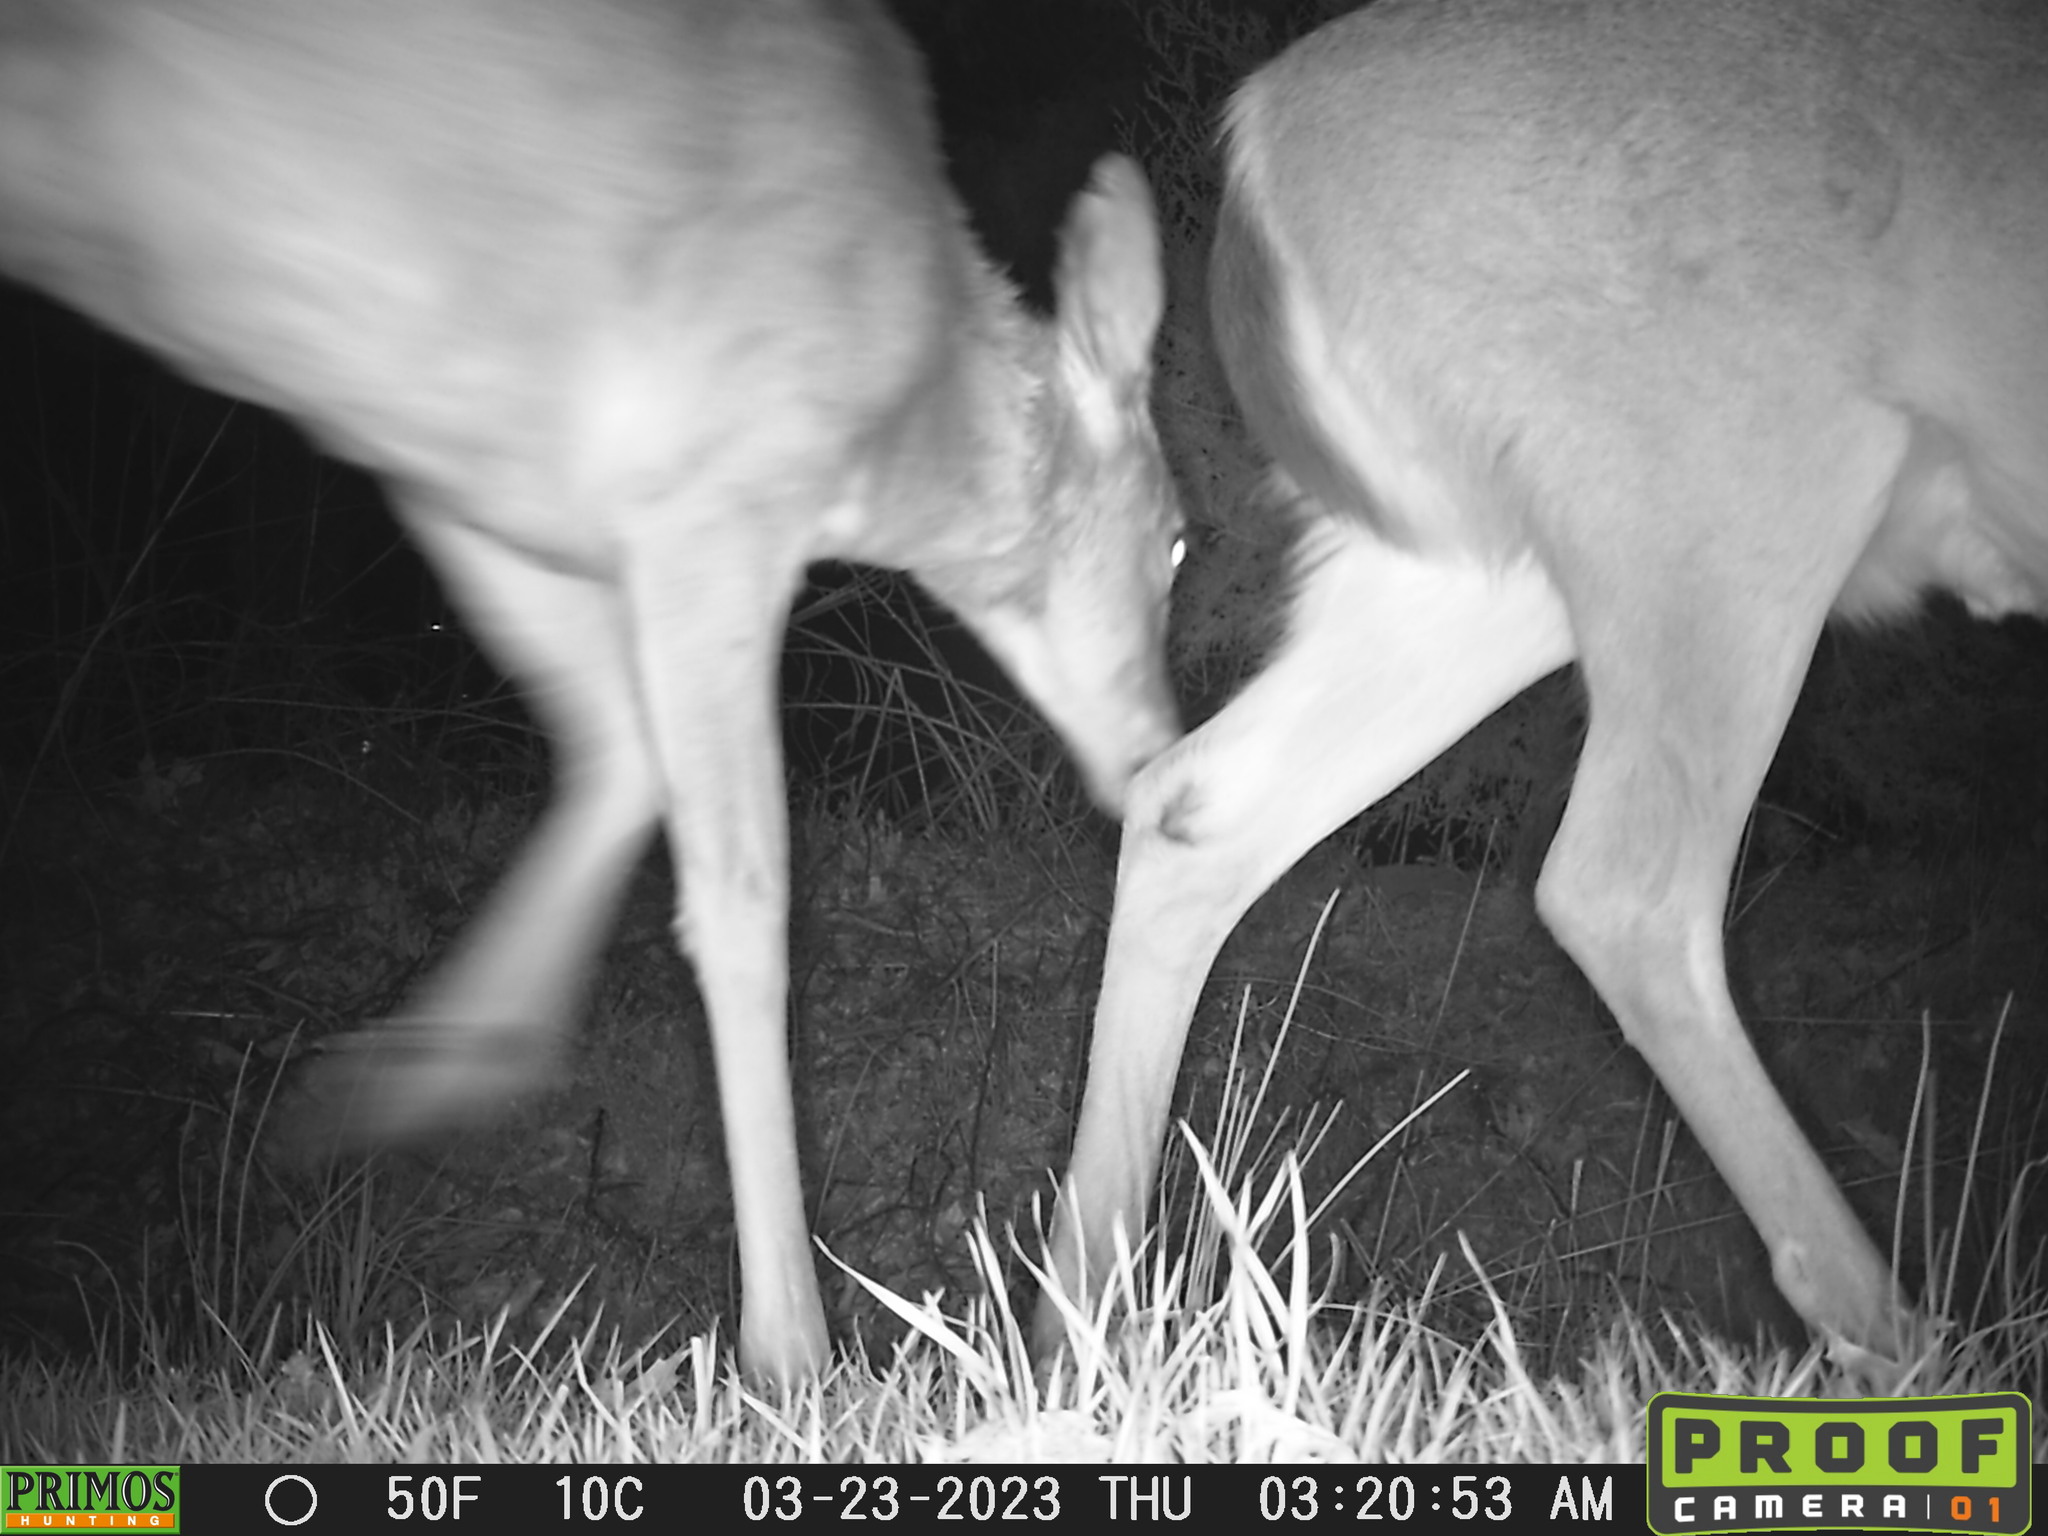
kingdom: Animalia
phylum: Chordata
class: Mammalia
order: Artiodactyla
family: Cervidae
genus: Odocoileus
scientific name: Odocoileus virginianus
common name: White-tailed deer
